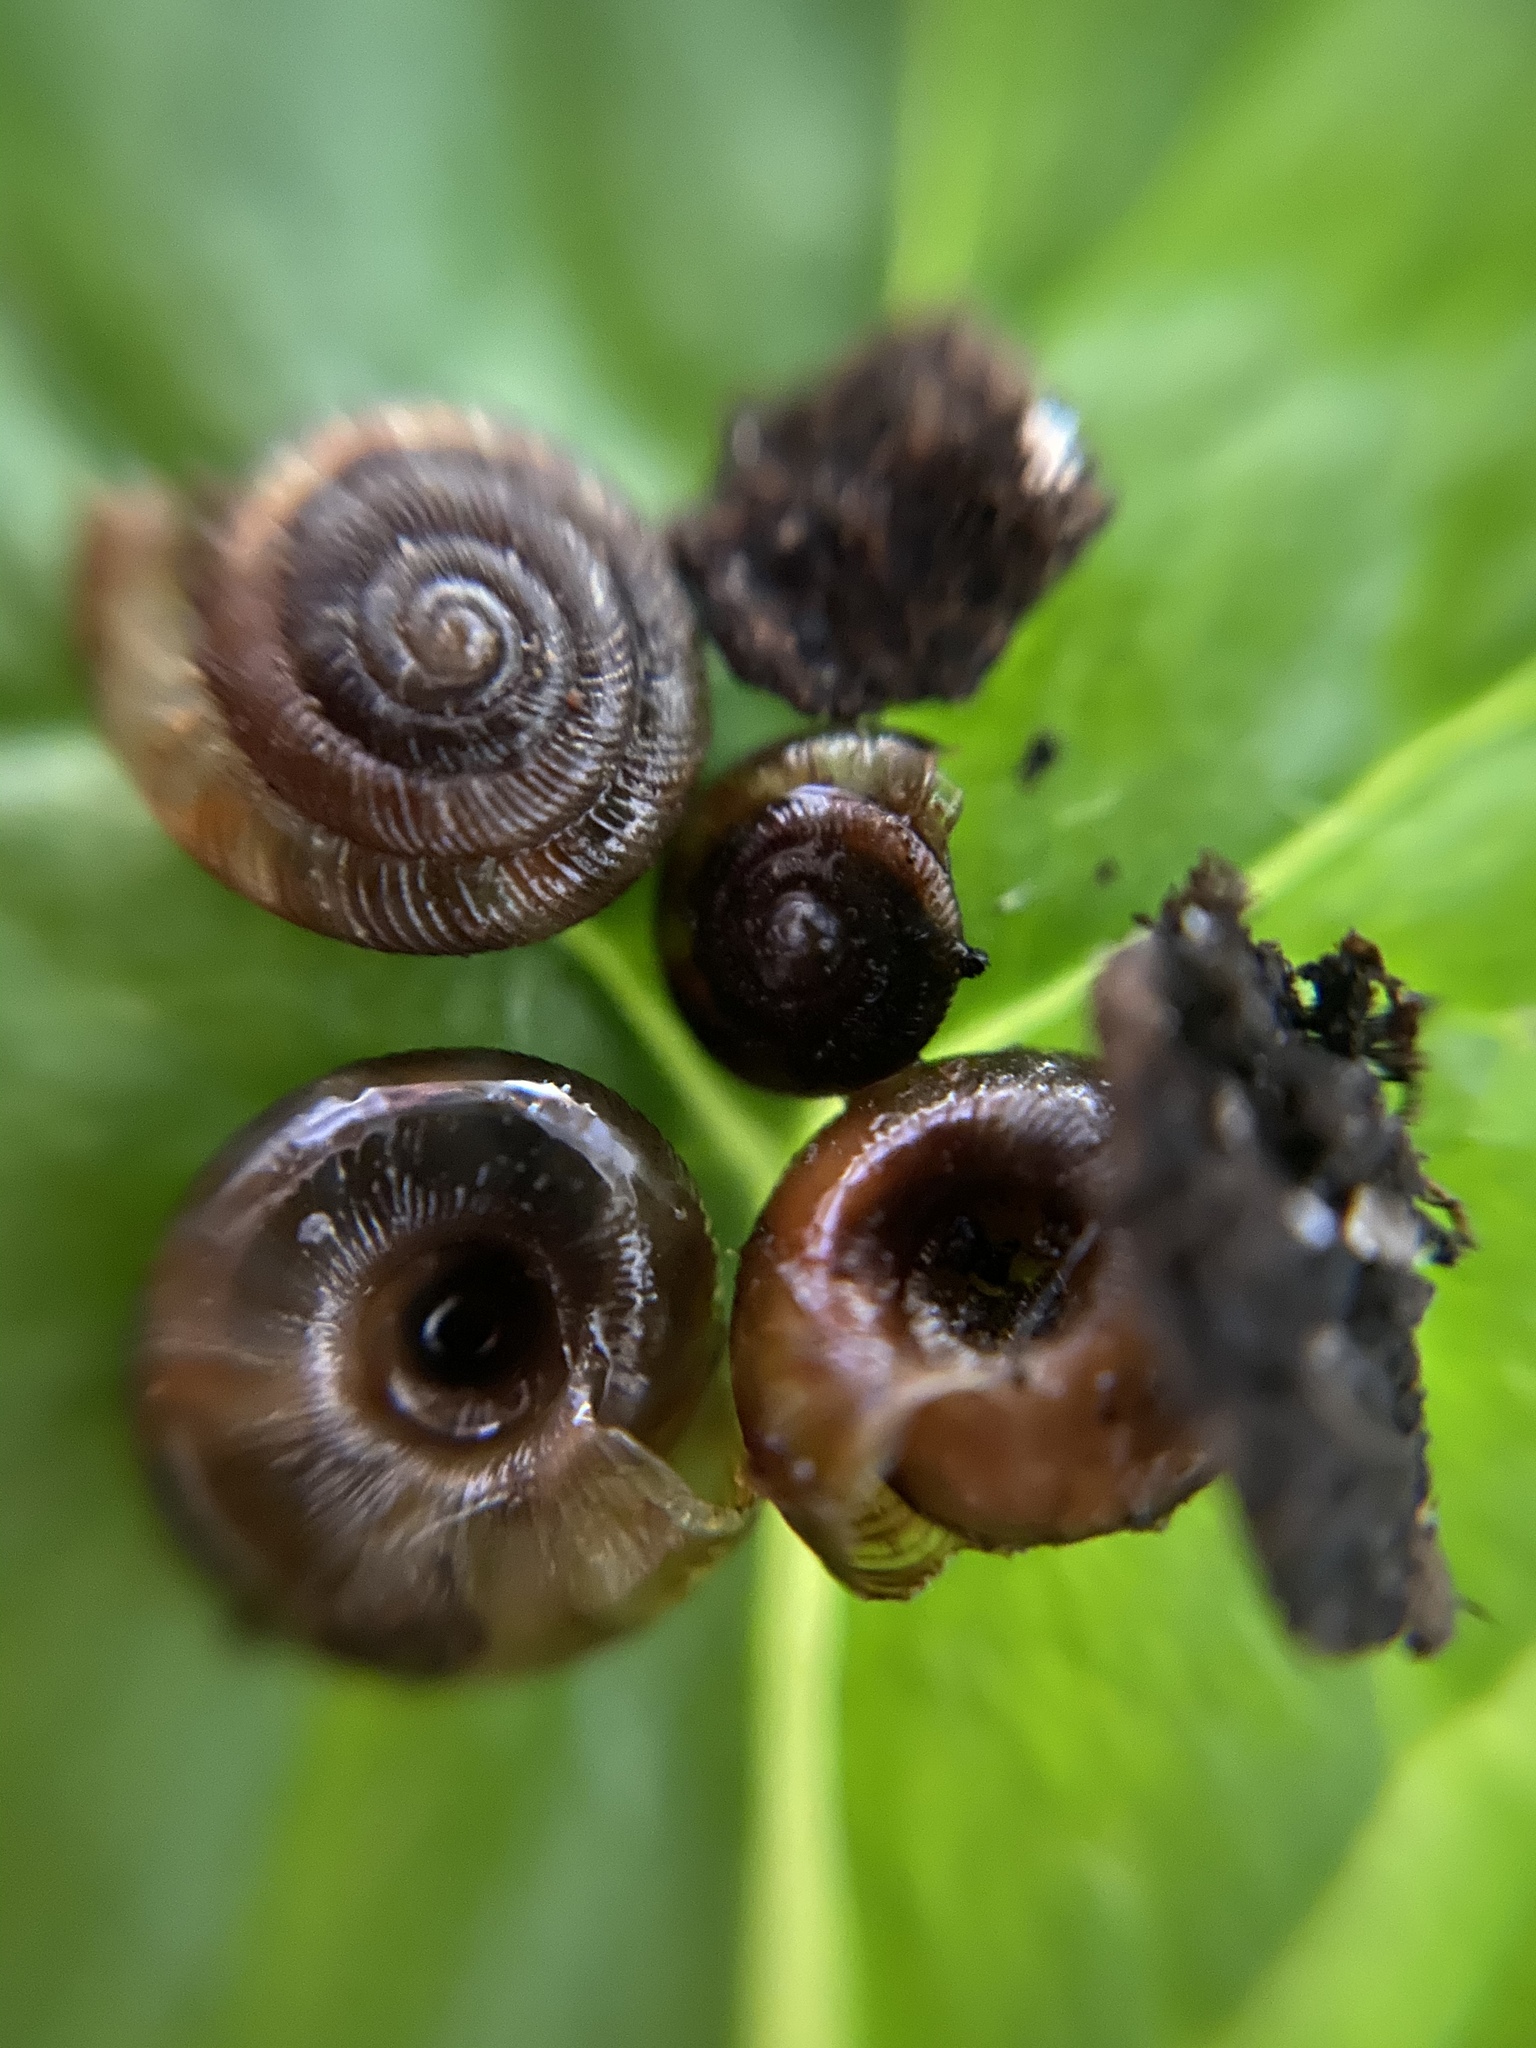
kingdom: Animalia
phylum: Mollusca
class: Gastropoda
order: Stylommatophora
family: Discidae
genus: Discus
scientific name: Discus rotundatus
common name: Rounded snail
